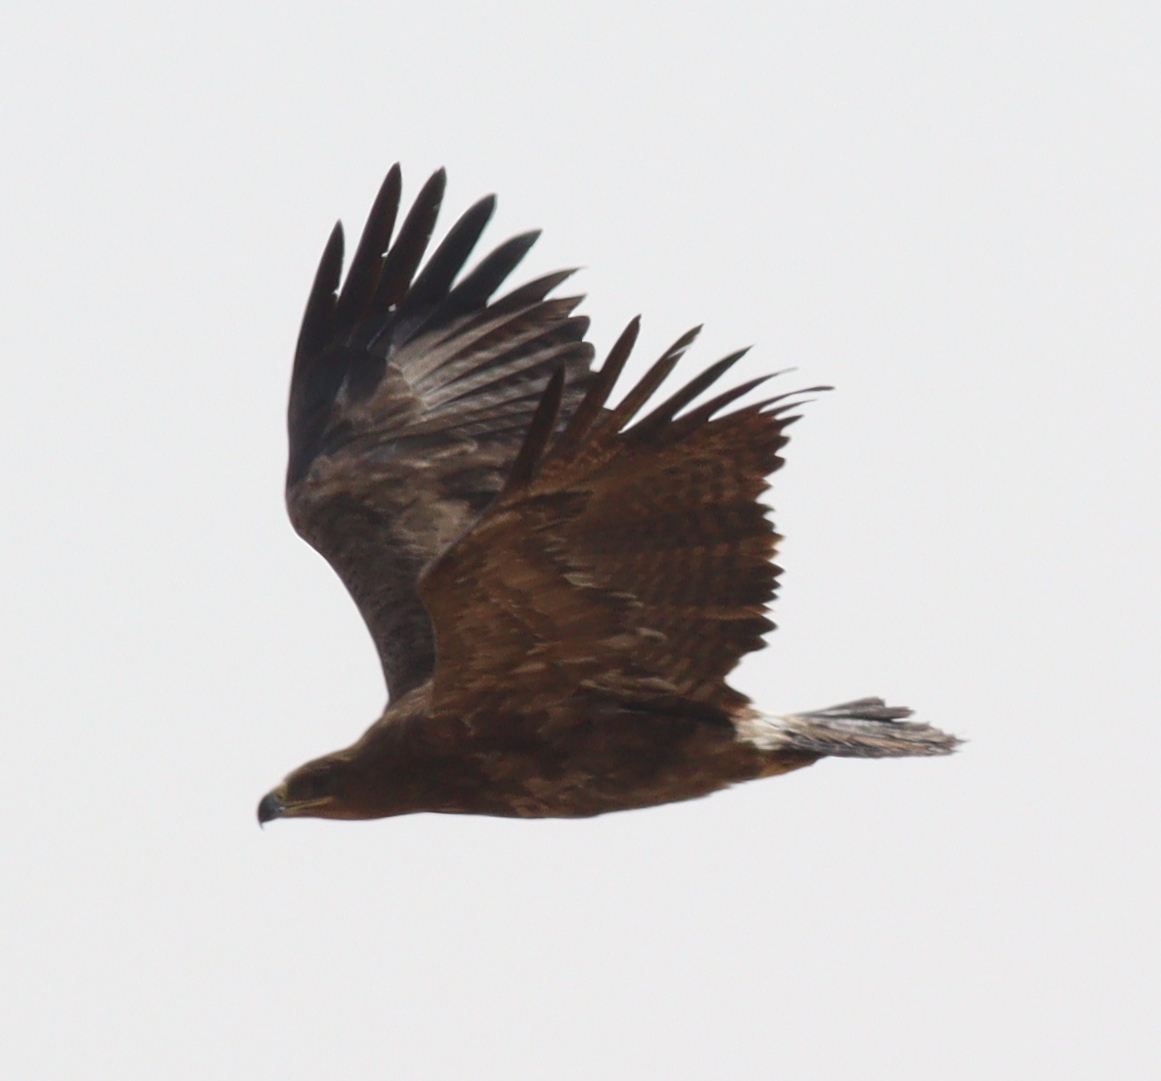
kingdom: Animalia
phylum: Chordata
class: Aves
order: Accipitriformes
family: Accipitridae
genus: Aquila
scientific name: Aquila nipalensis
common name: Steppe eagle
